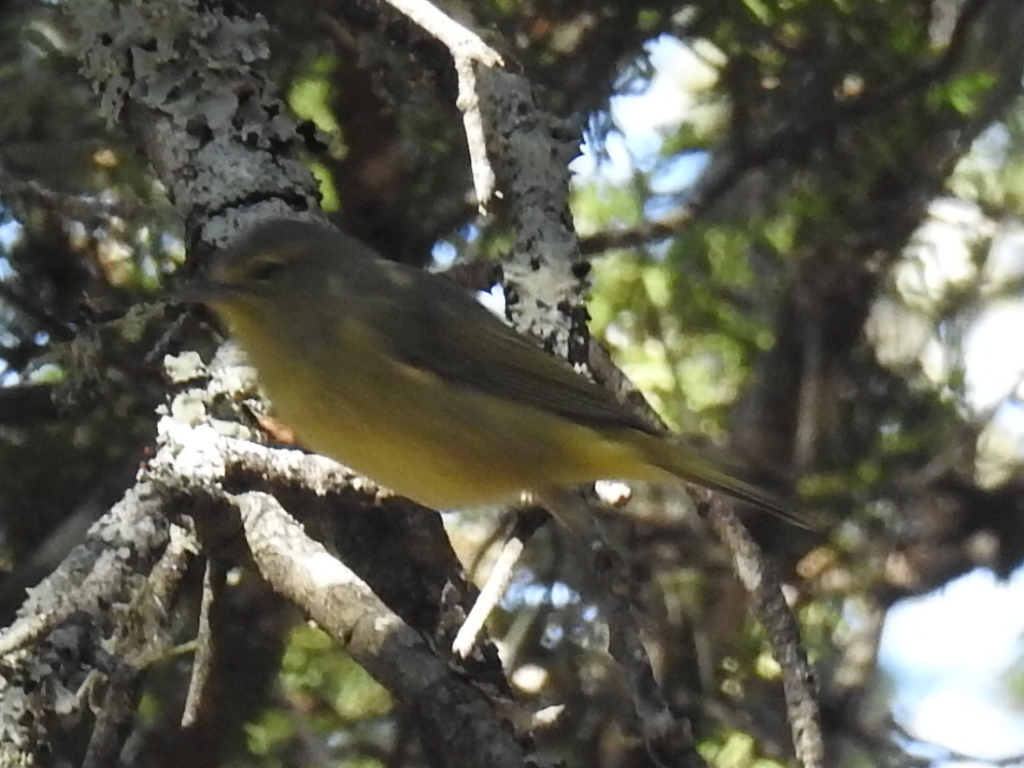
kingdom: Animalia
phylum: Chordata
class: Aves
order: Passeriformes
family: Parulidae
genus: Leiothlypis
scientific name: Leiothlypis celata
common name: Orange-crowned warbler
